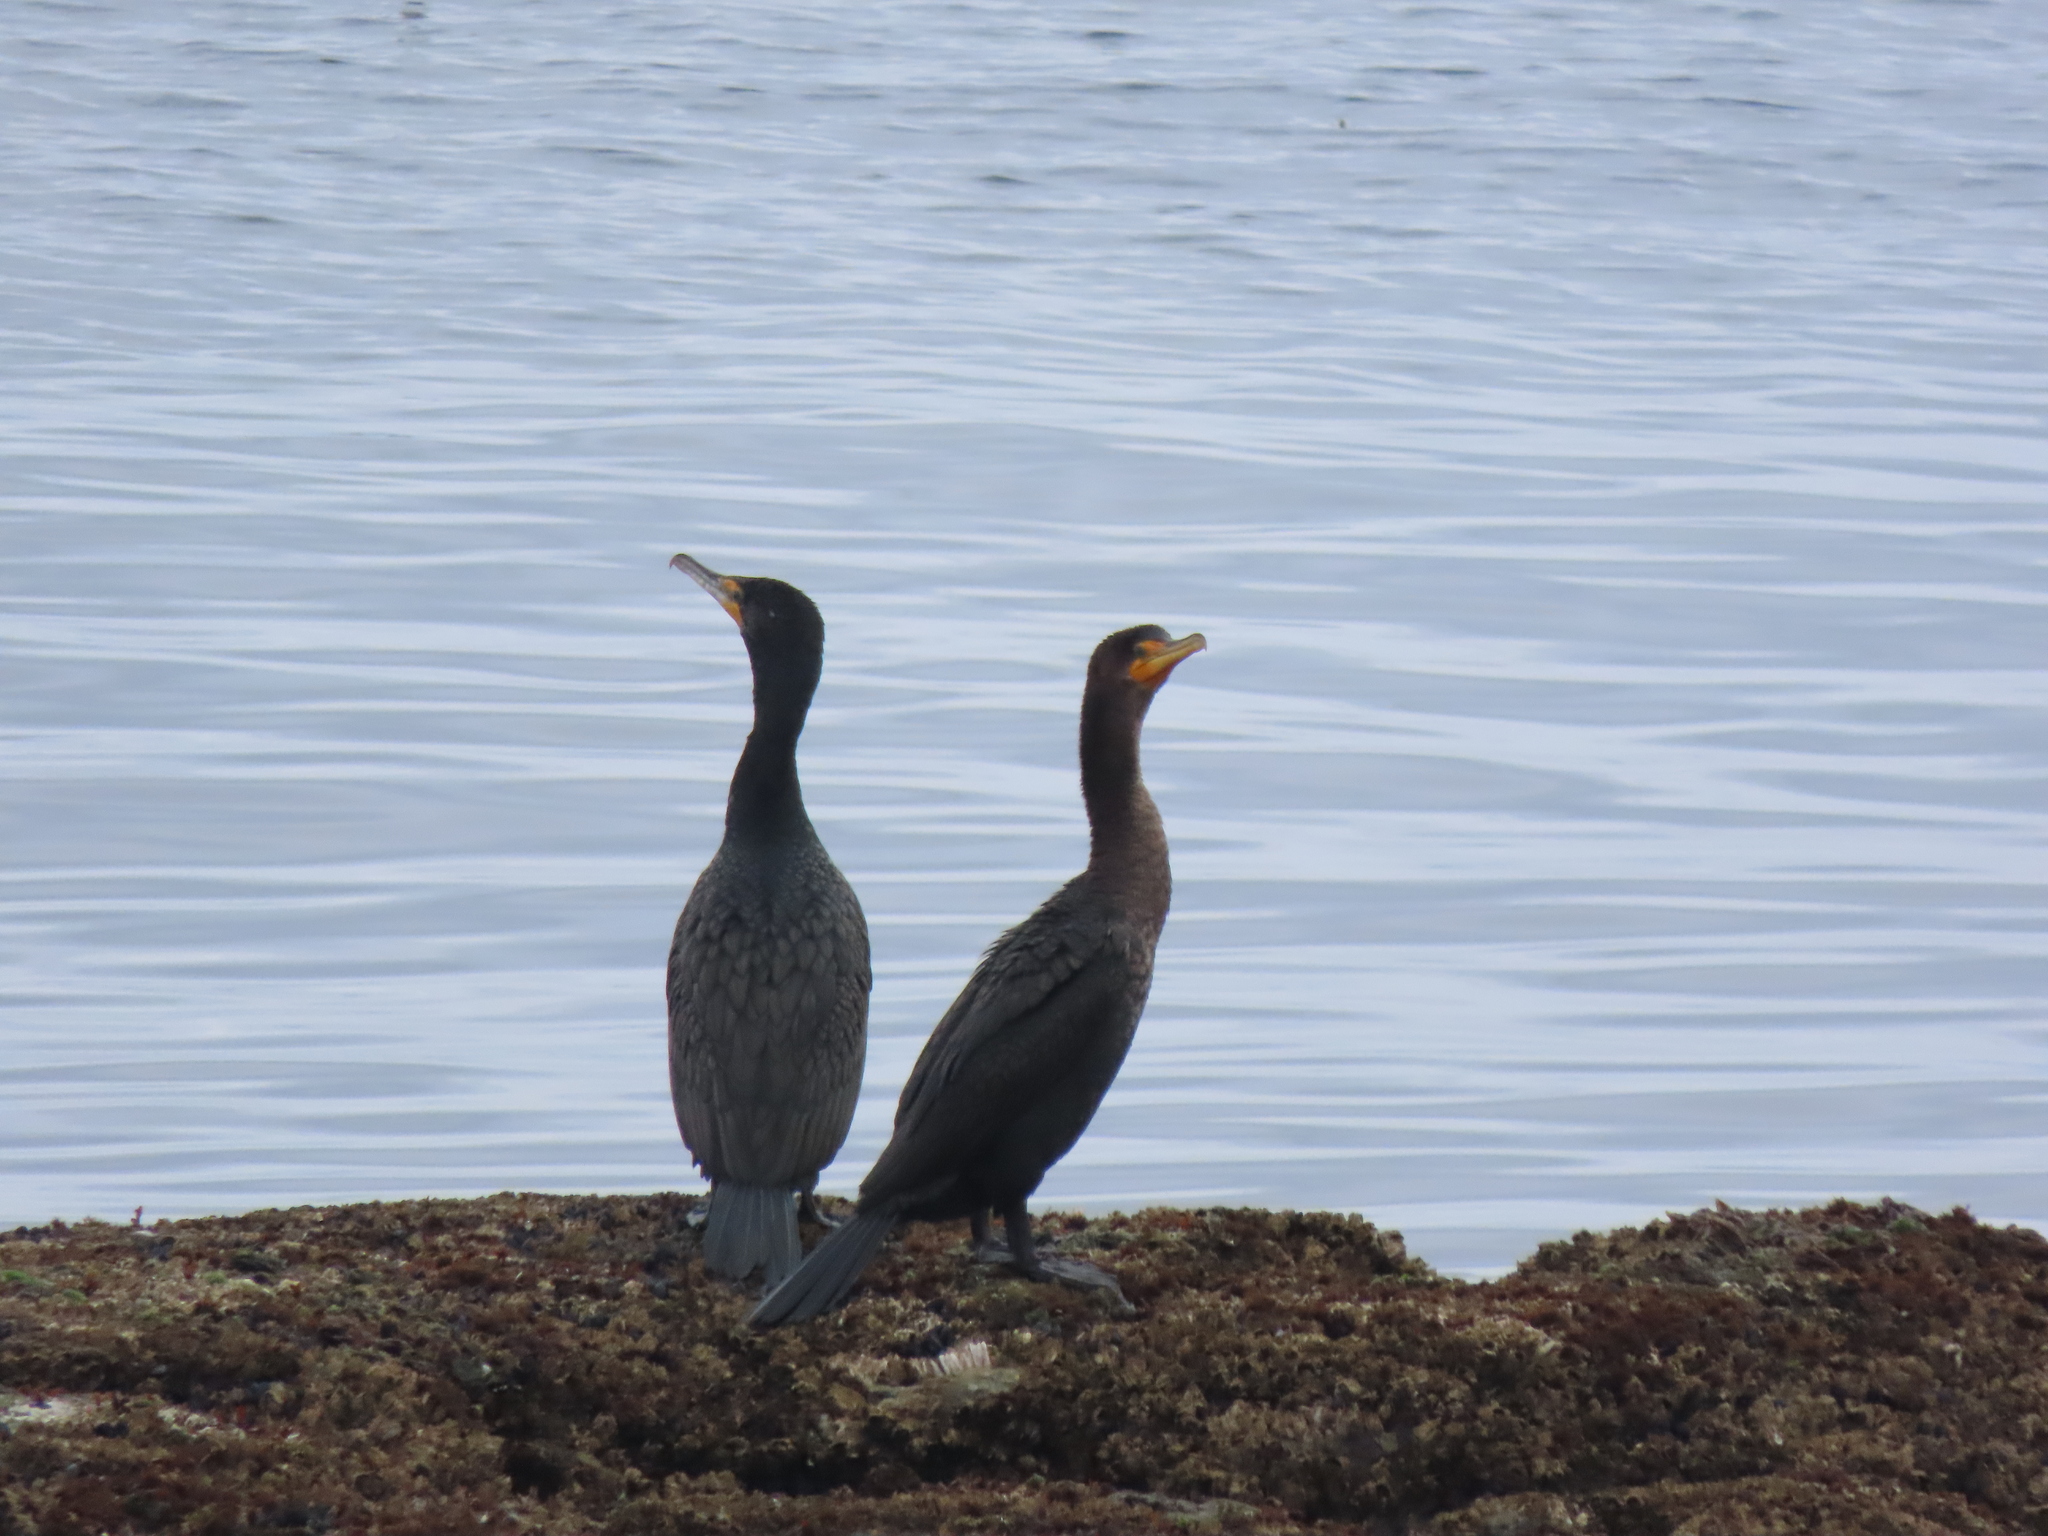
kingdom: Animalia
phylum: Chordata
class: Aves
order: Suliformes
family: Phalacrocoracidae
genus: Phalacrocorax
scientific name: Phalacrocorax auritus
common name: Double-crested cormorant
